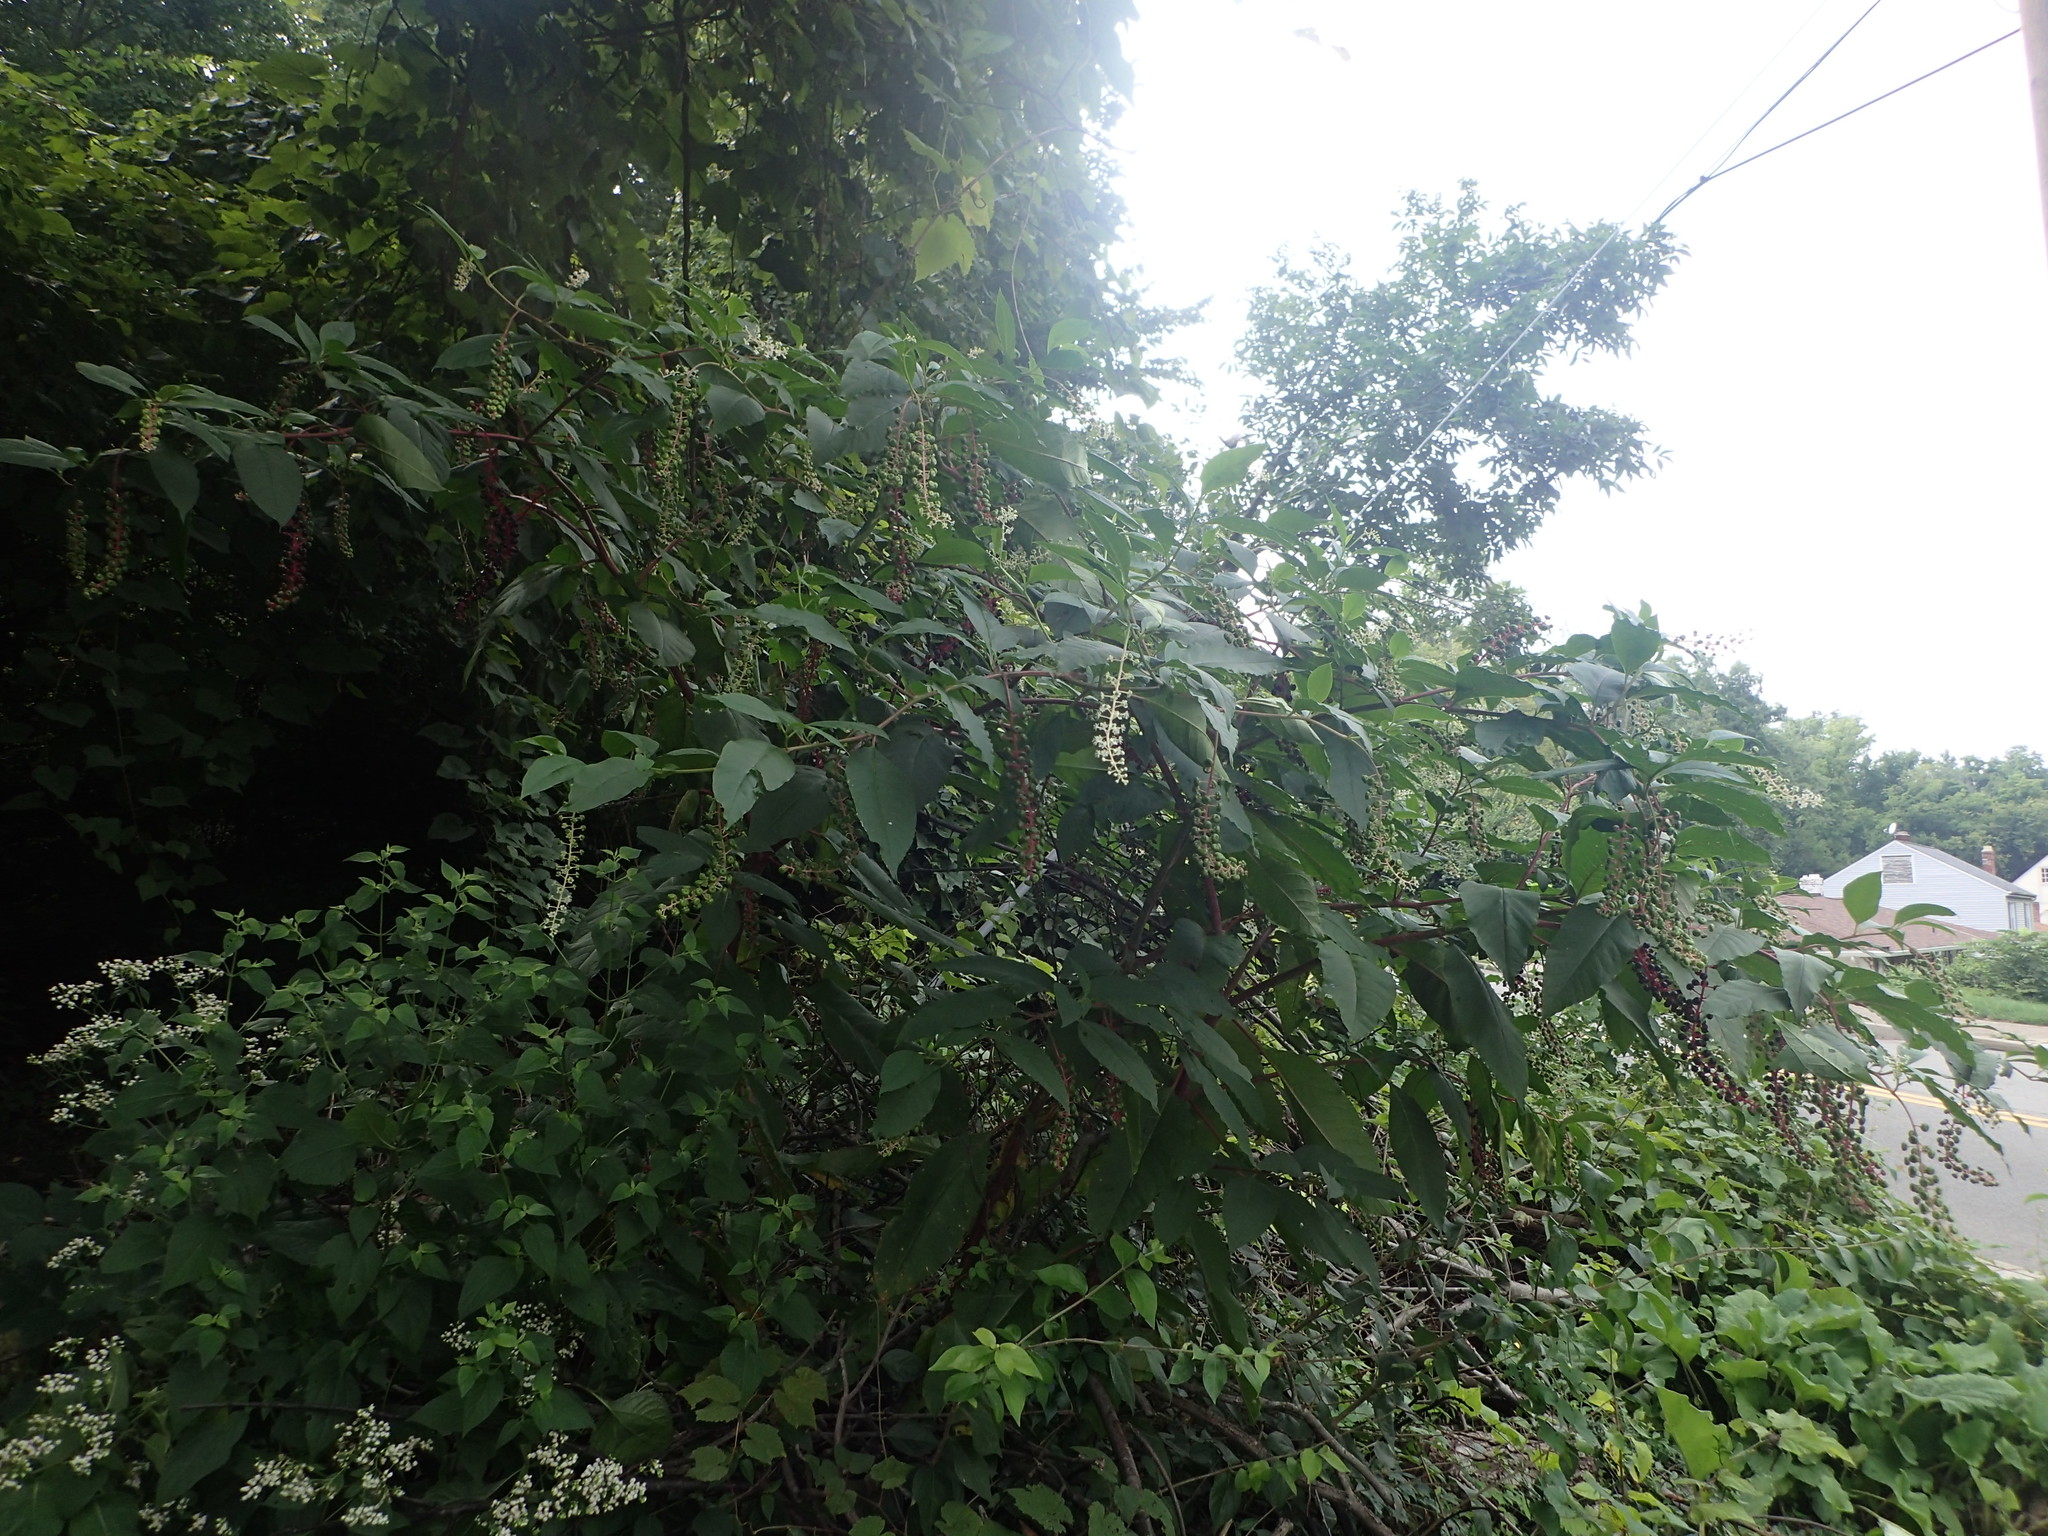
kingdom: Plantae
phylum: Tracheophyta
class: Magnoliopsida
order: Caryophyllales
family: Phytolaccaceae
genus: Phytolacca
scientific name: Phytolacca americana
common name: American pokeweed
